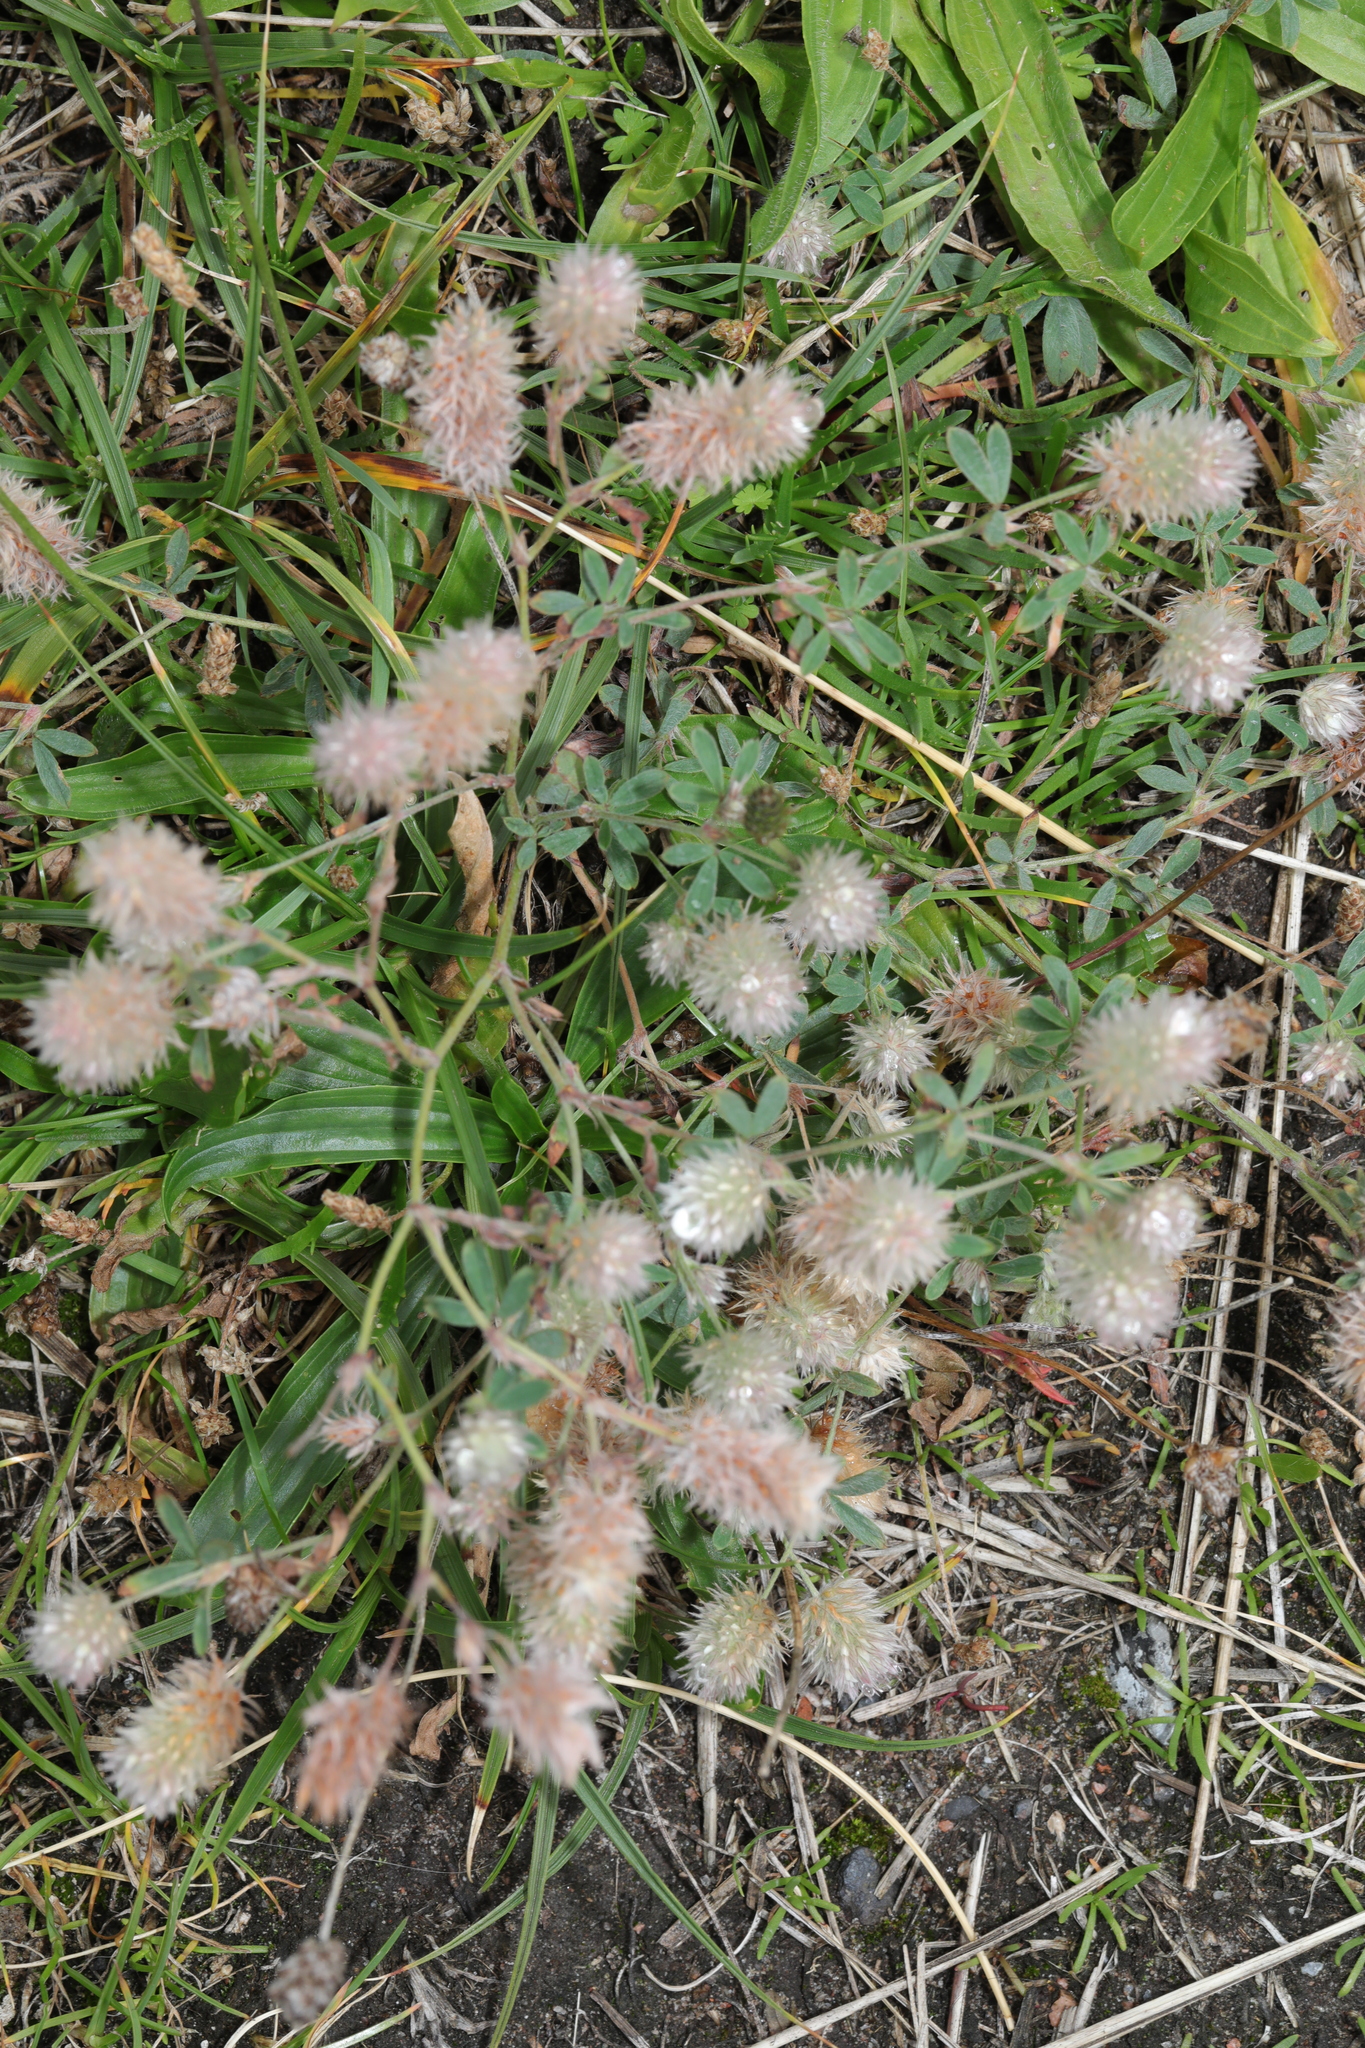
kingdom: Plantae
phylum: Tracheophyta
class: Magnoliopsida
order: Fabales
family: Fabaceae
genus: Trifolium
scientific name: Trifolium arvense
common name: Hare's-foot clover
